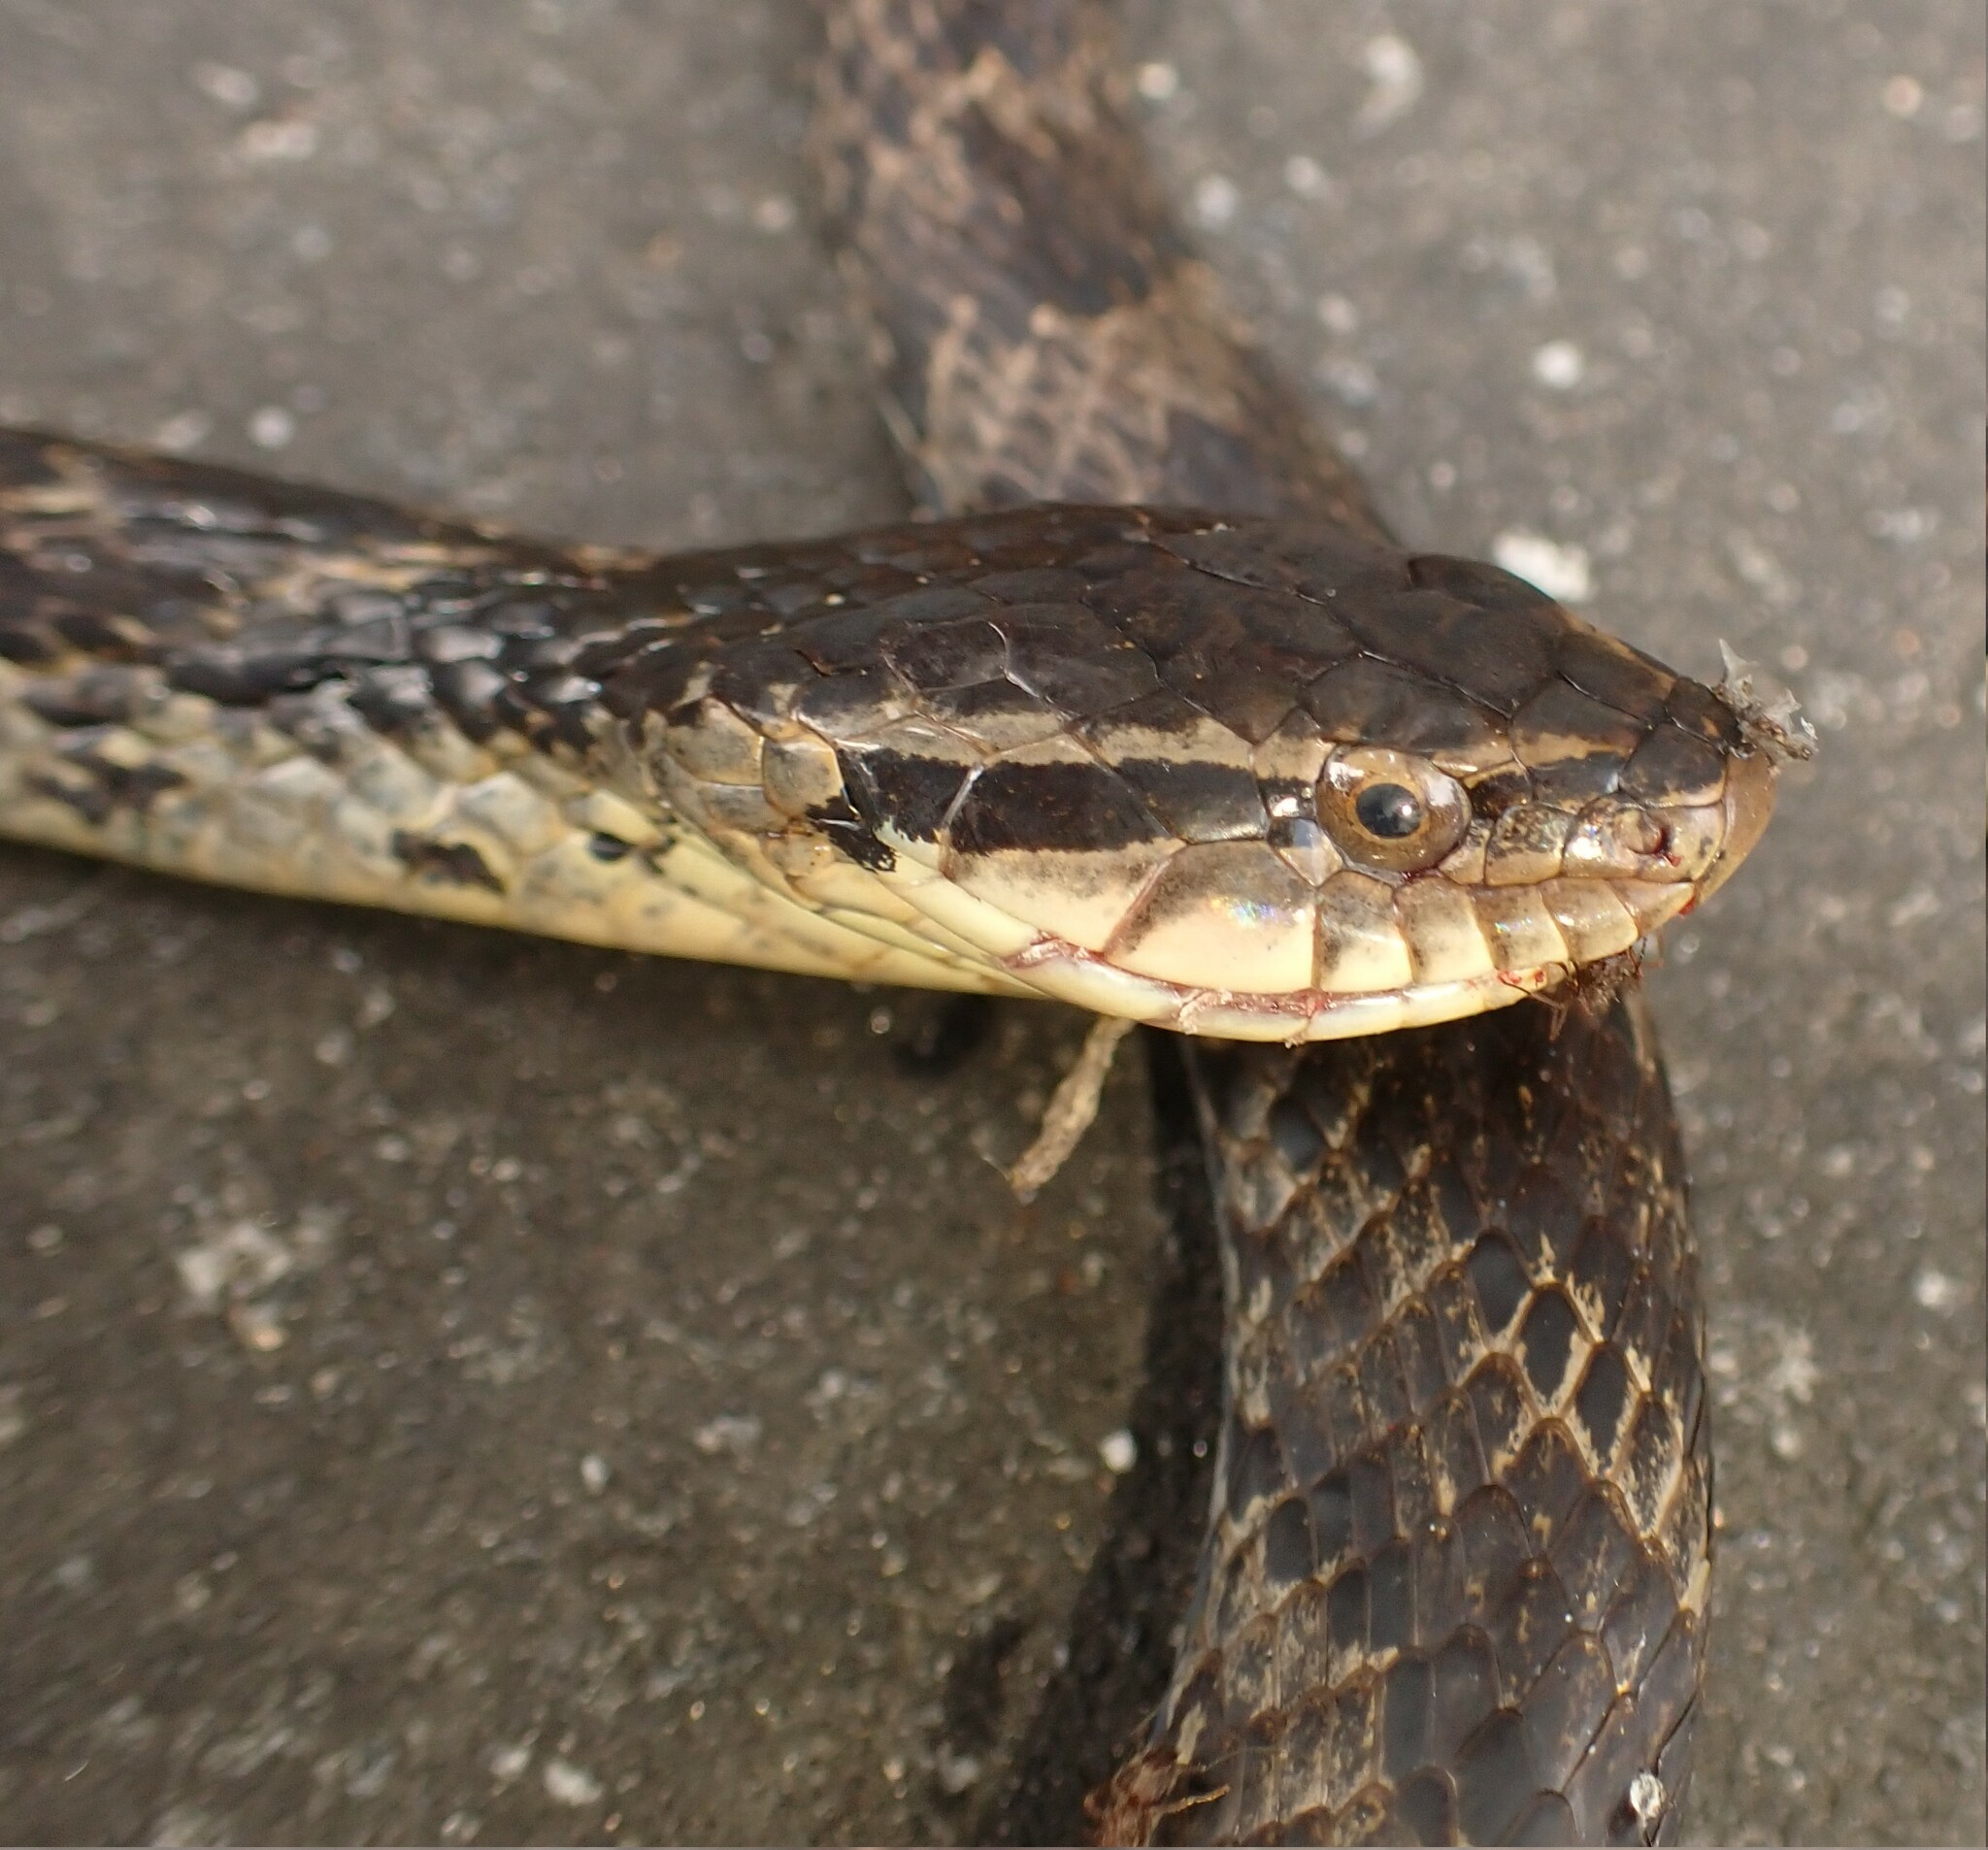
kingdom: Animalia
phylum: Chordata
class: Squamata
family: Colubridae
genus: Xenodon
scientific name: Xenodon neuwiedii
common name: Neuwied's false fer-de-lance
